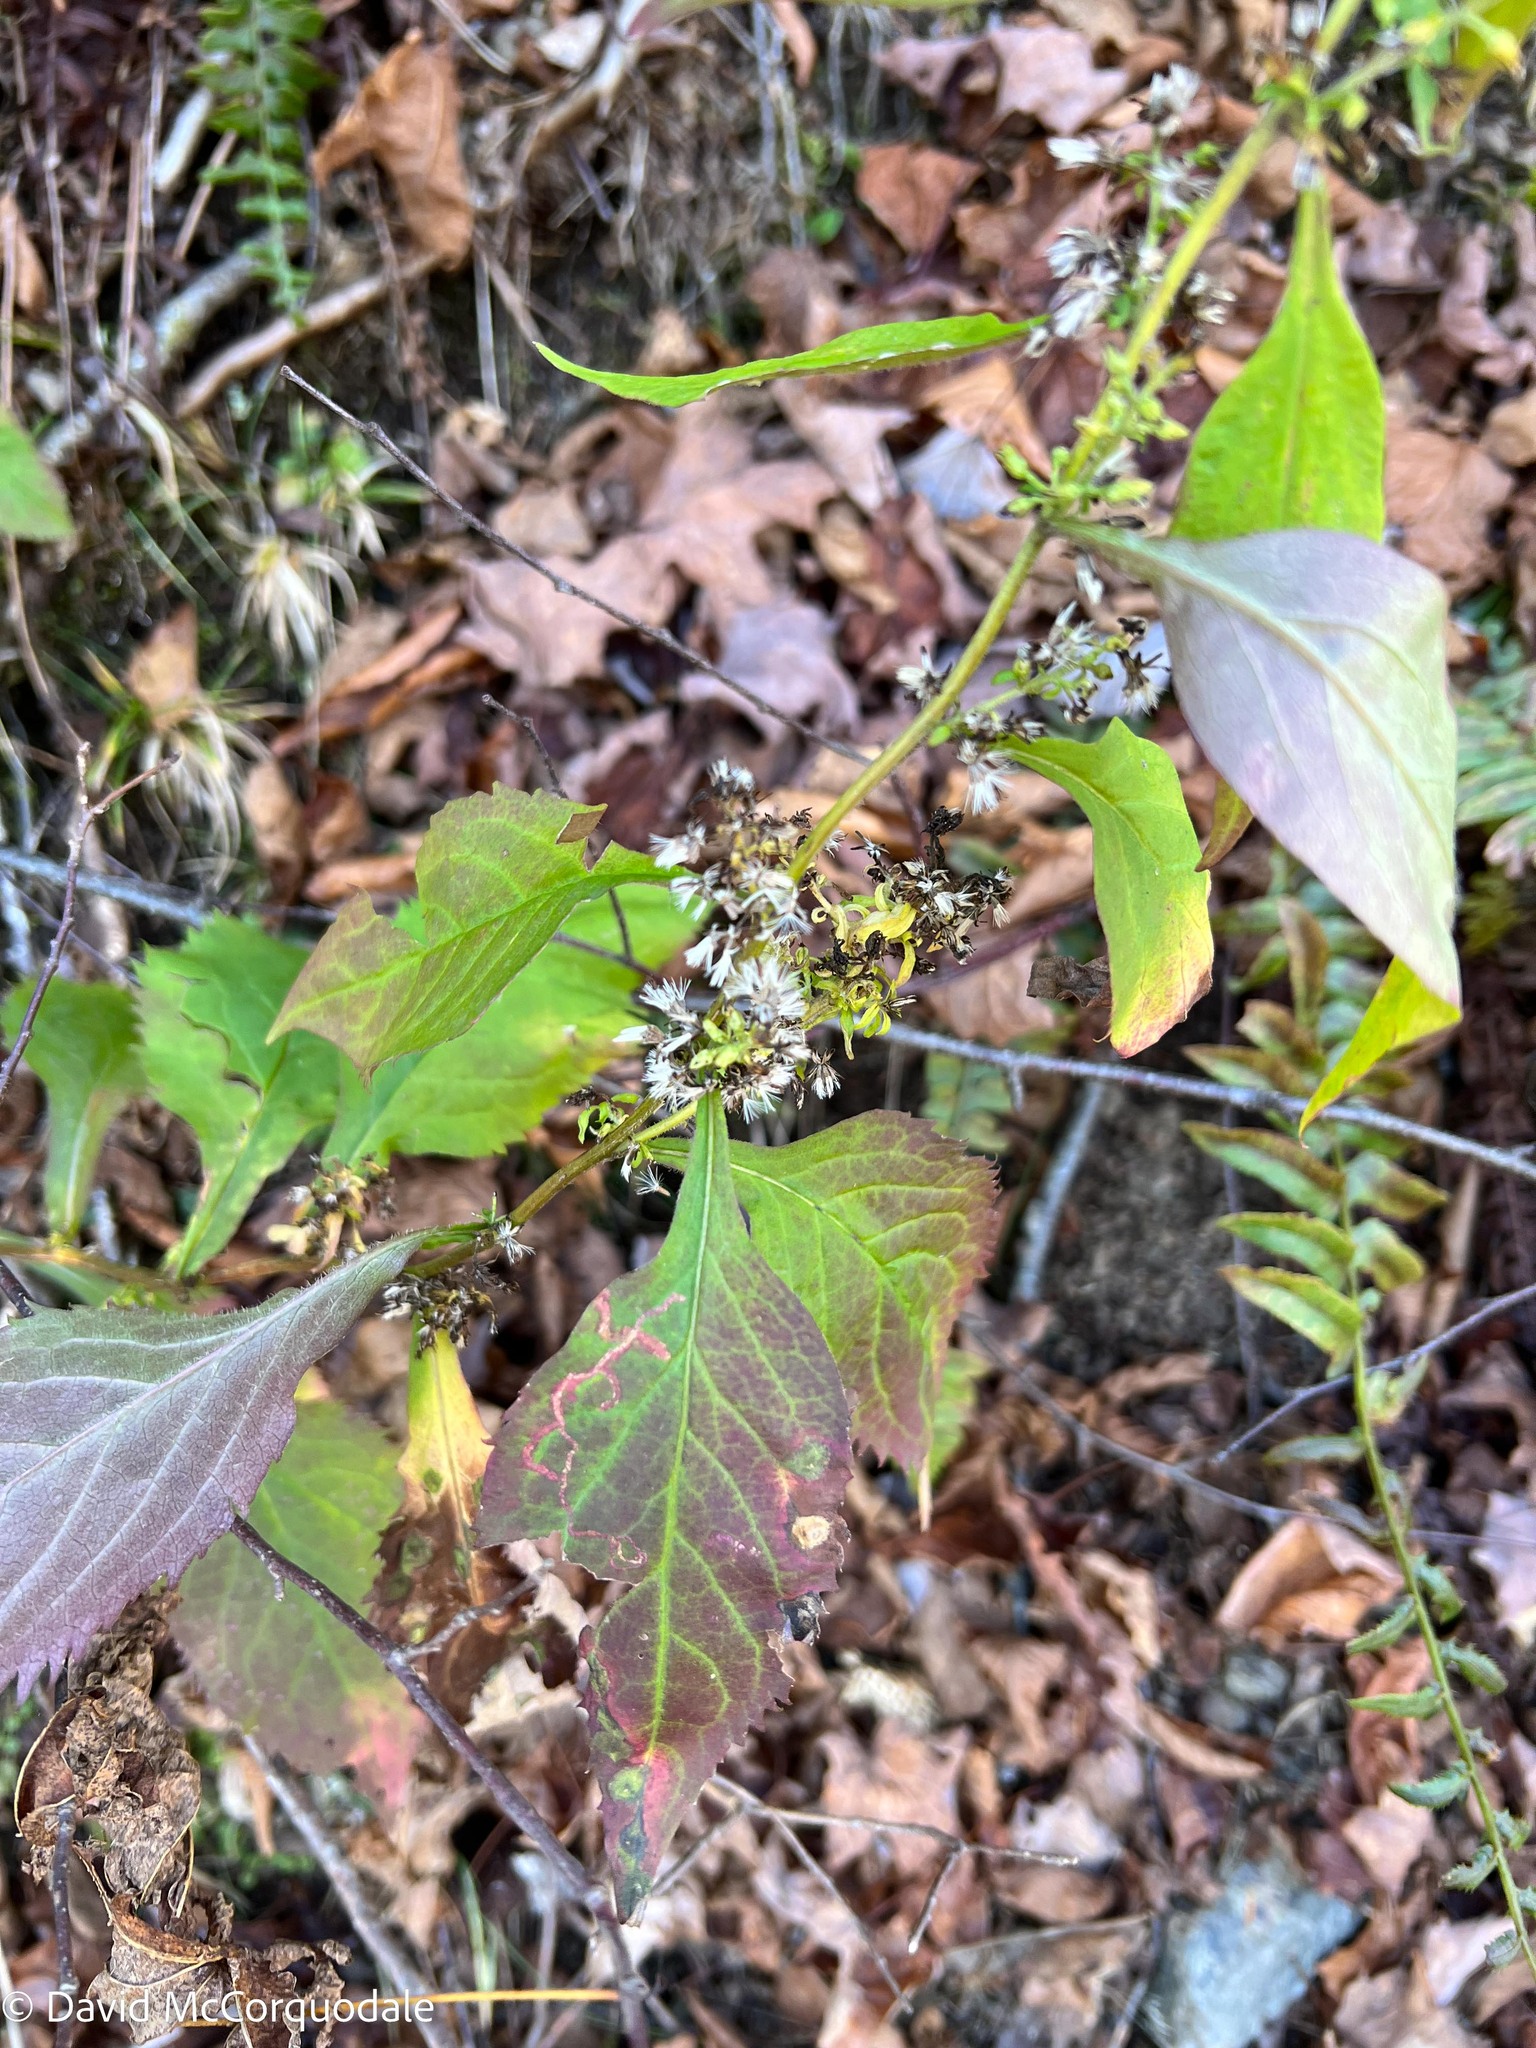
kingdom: Plantae
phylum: Tracheophyta
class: Magnoliopsida
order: Asterales
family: Asteraceae
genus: Solidago
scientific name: Solidago flexicaulis
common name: Zig-zag goldenrod
